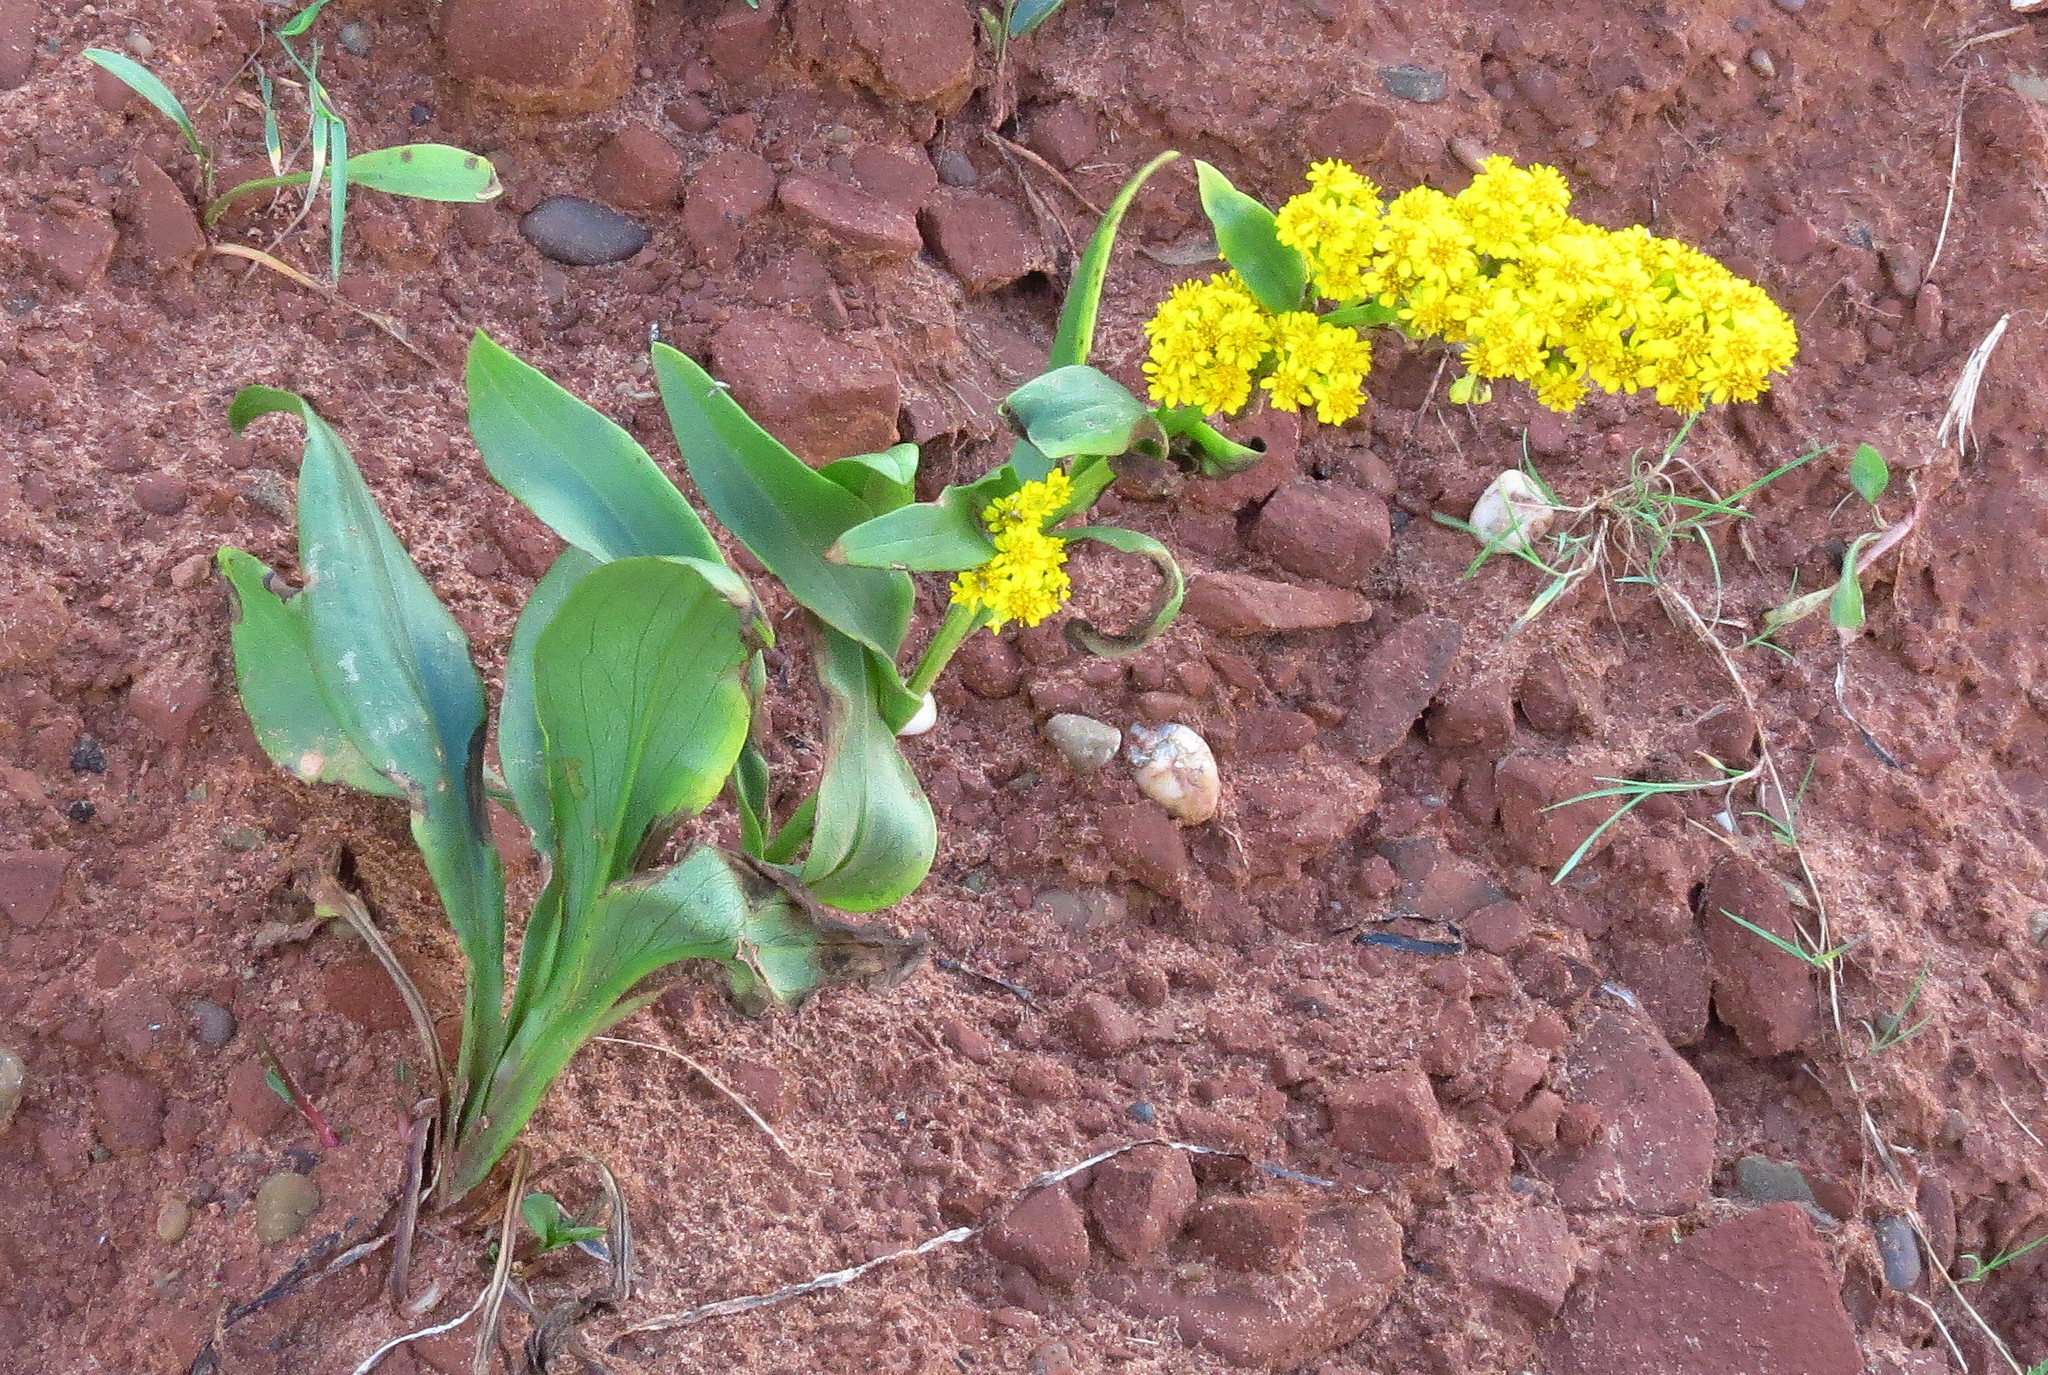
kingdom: Plantae
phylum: Tracheophyta
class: Magnoliopsida
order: Asterales
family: Asteraceae
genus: Solidago
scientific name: Solidago sempervirens
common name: Salt-marsh goldenrod
